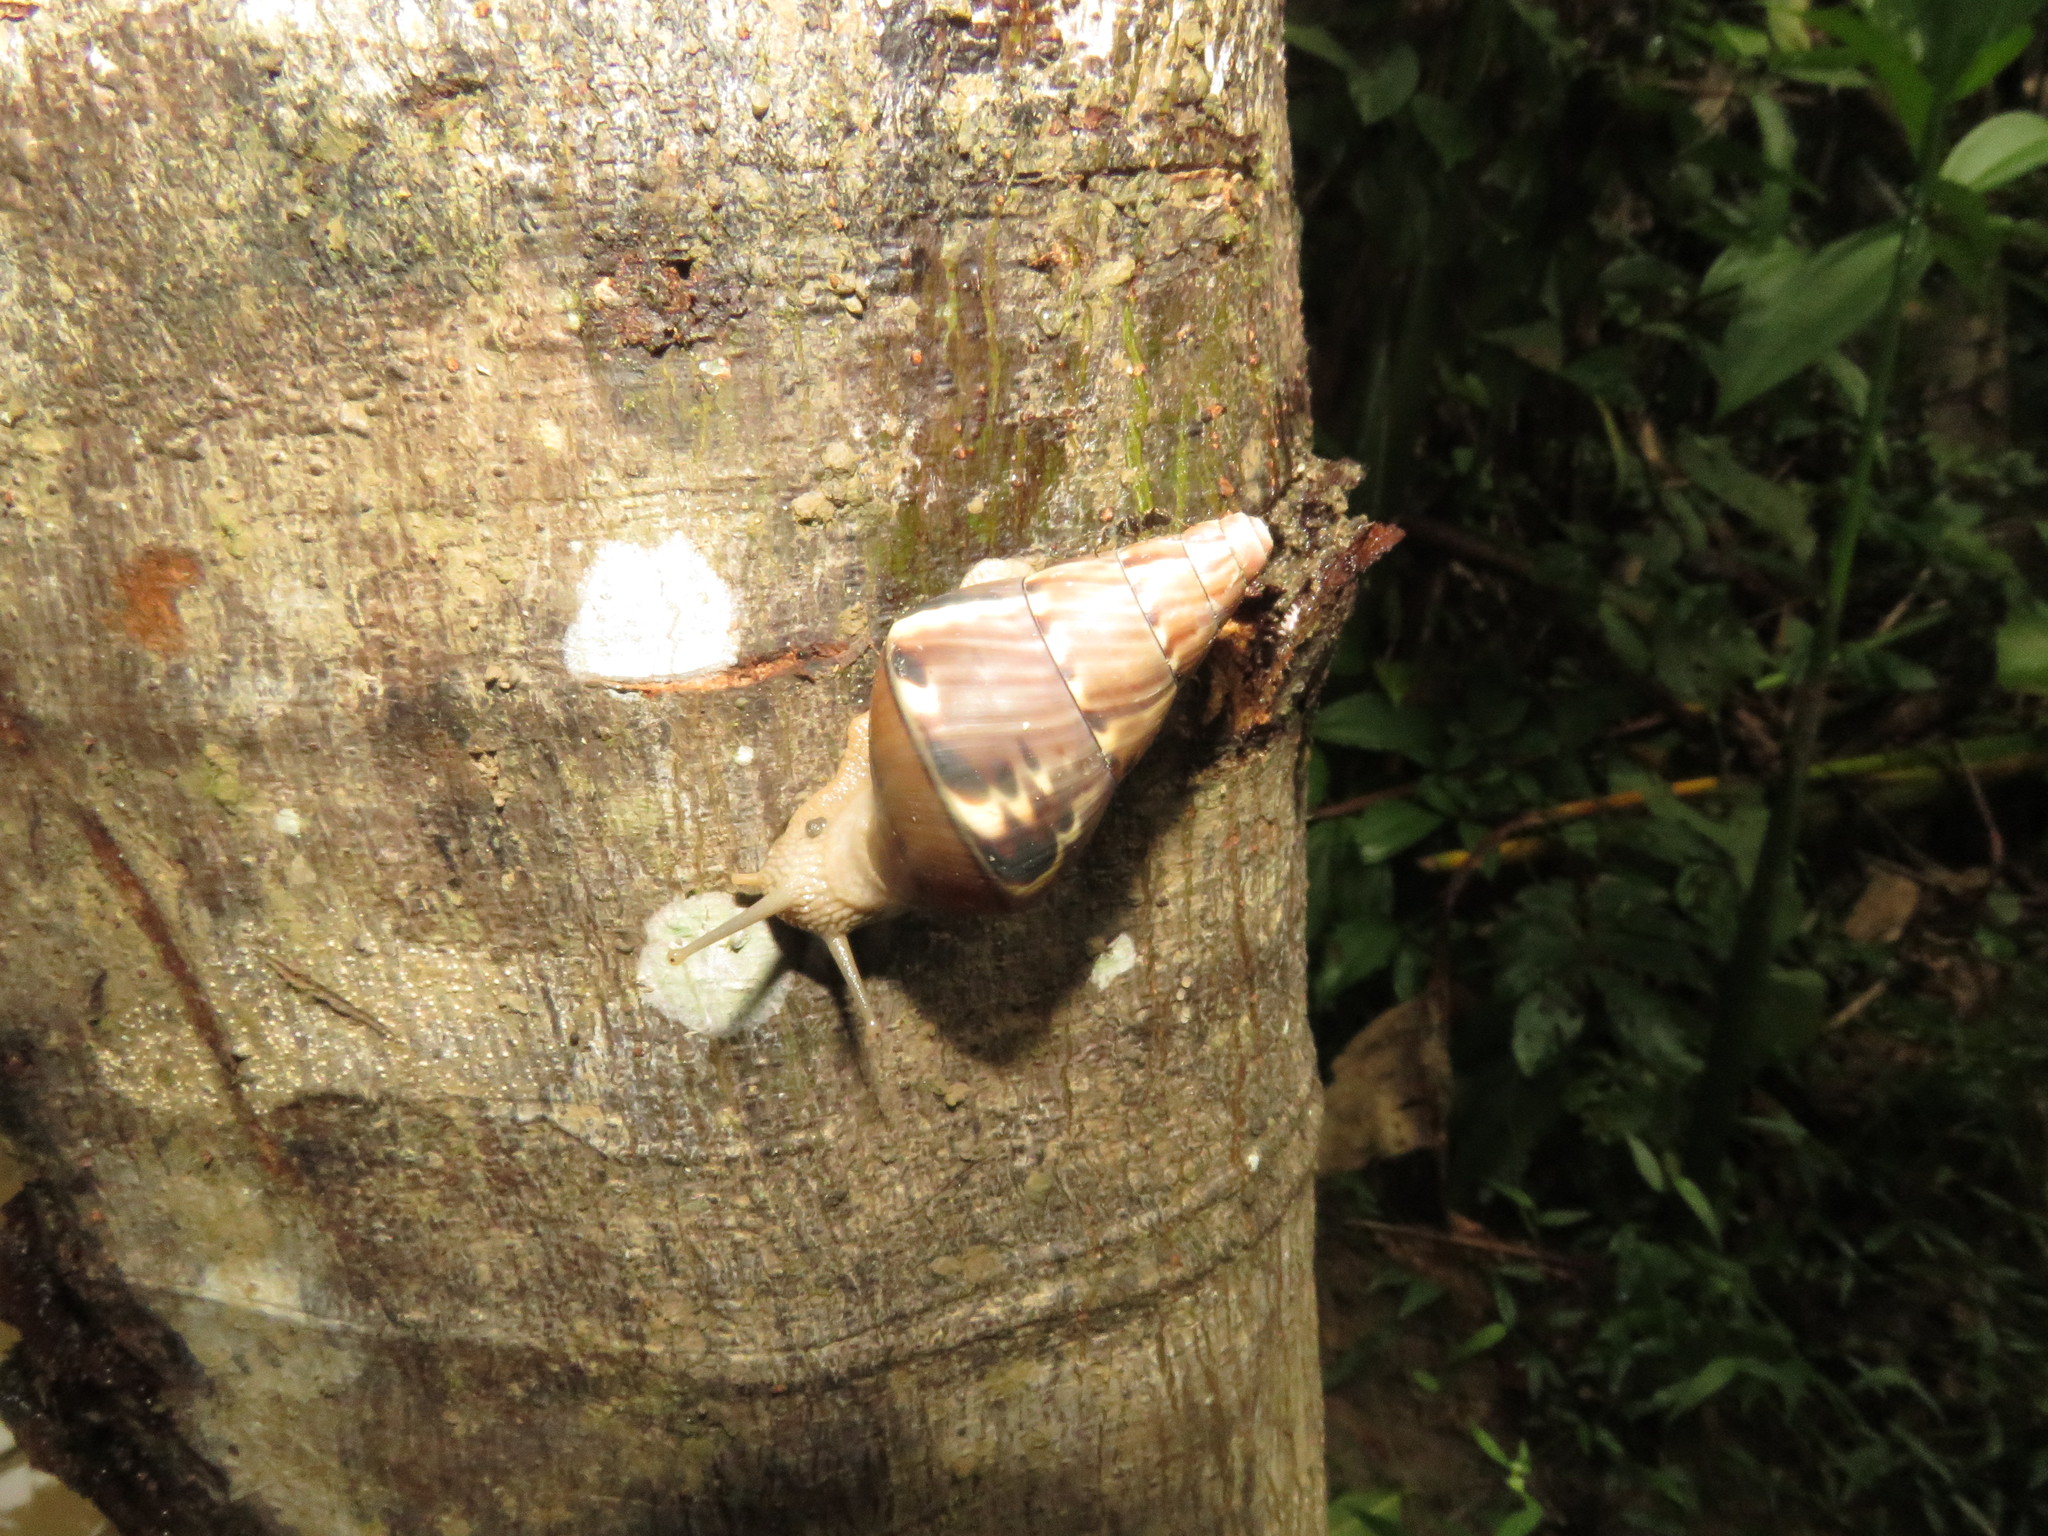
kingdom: Animalia
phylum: Mollusca
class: Gastropoda
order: Stylommatophora
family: Orthalicidae
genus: Corona
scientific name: Corona incisa
